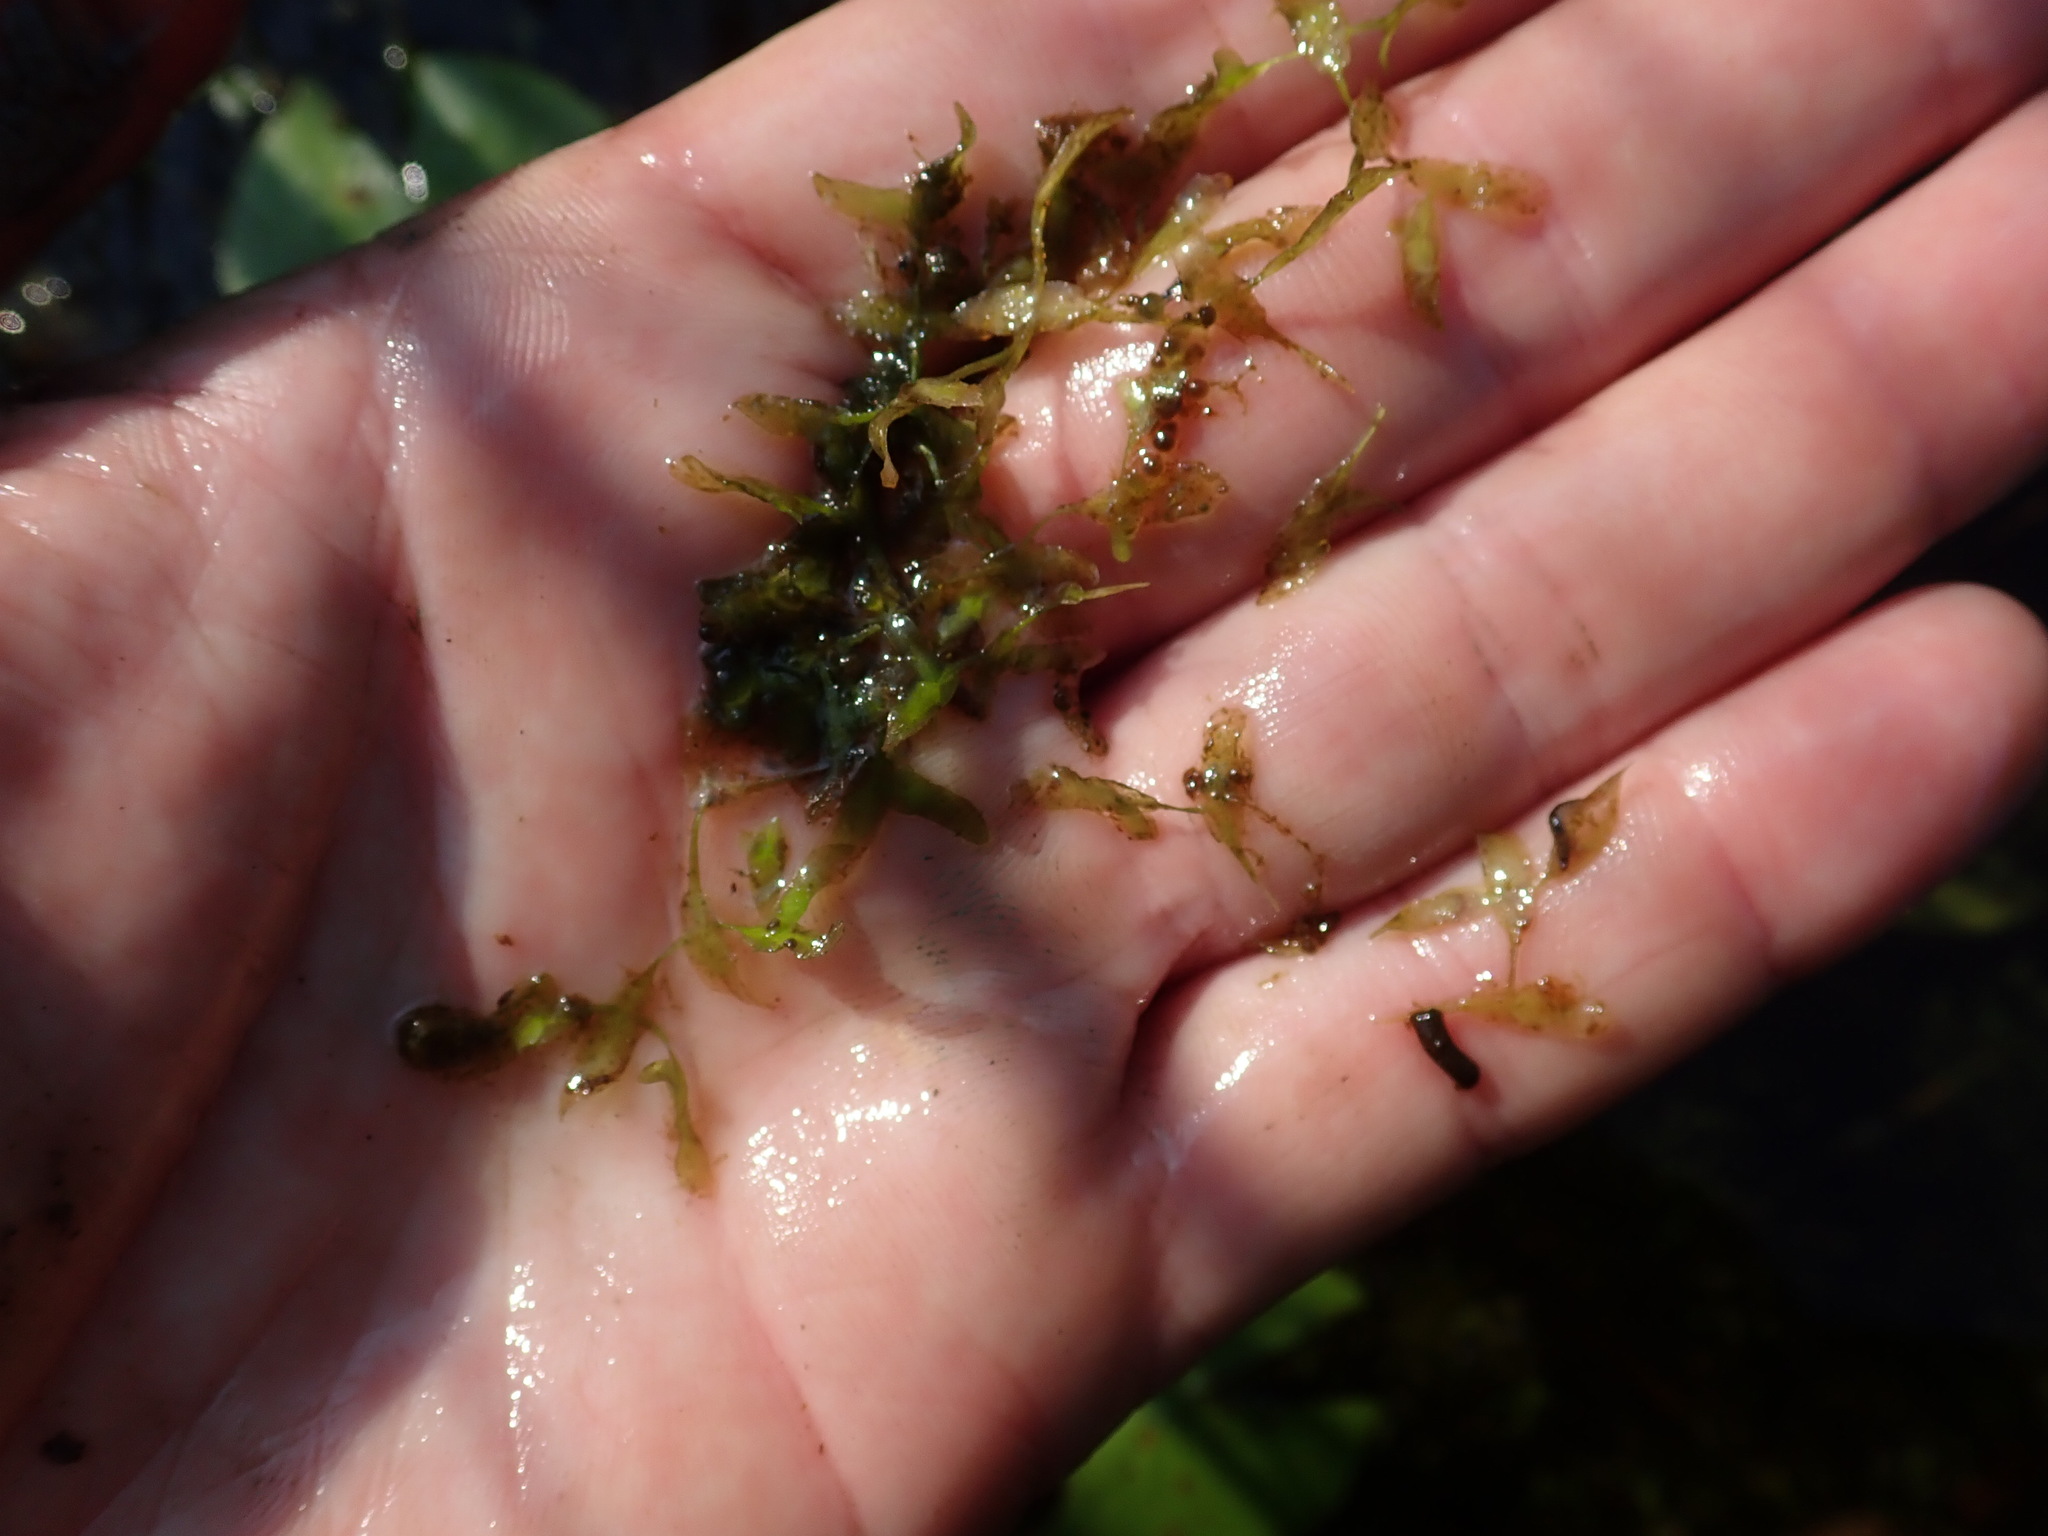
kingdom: Plantae
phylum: Tracheophyta
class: Liliopsida
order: Alismatales
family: Araceae
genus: Lemna
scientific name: Lemna trisulca
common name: Ivy-leaved duckweed
